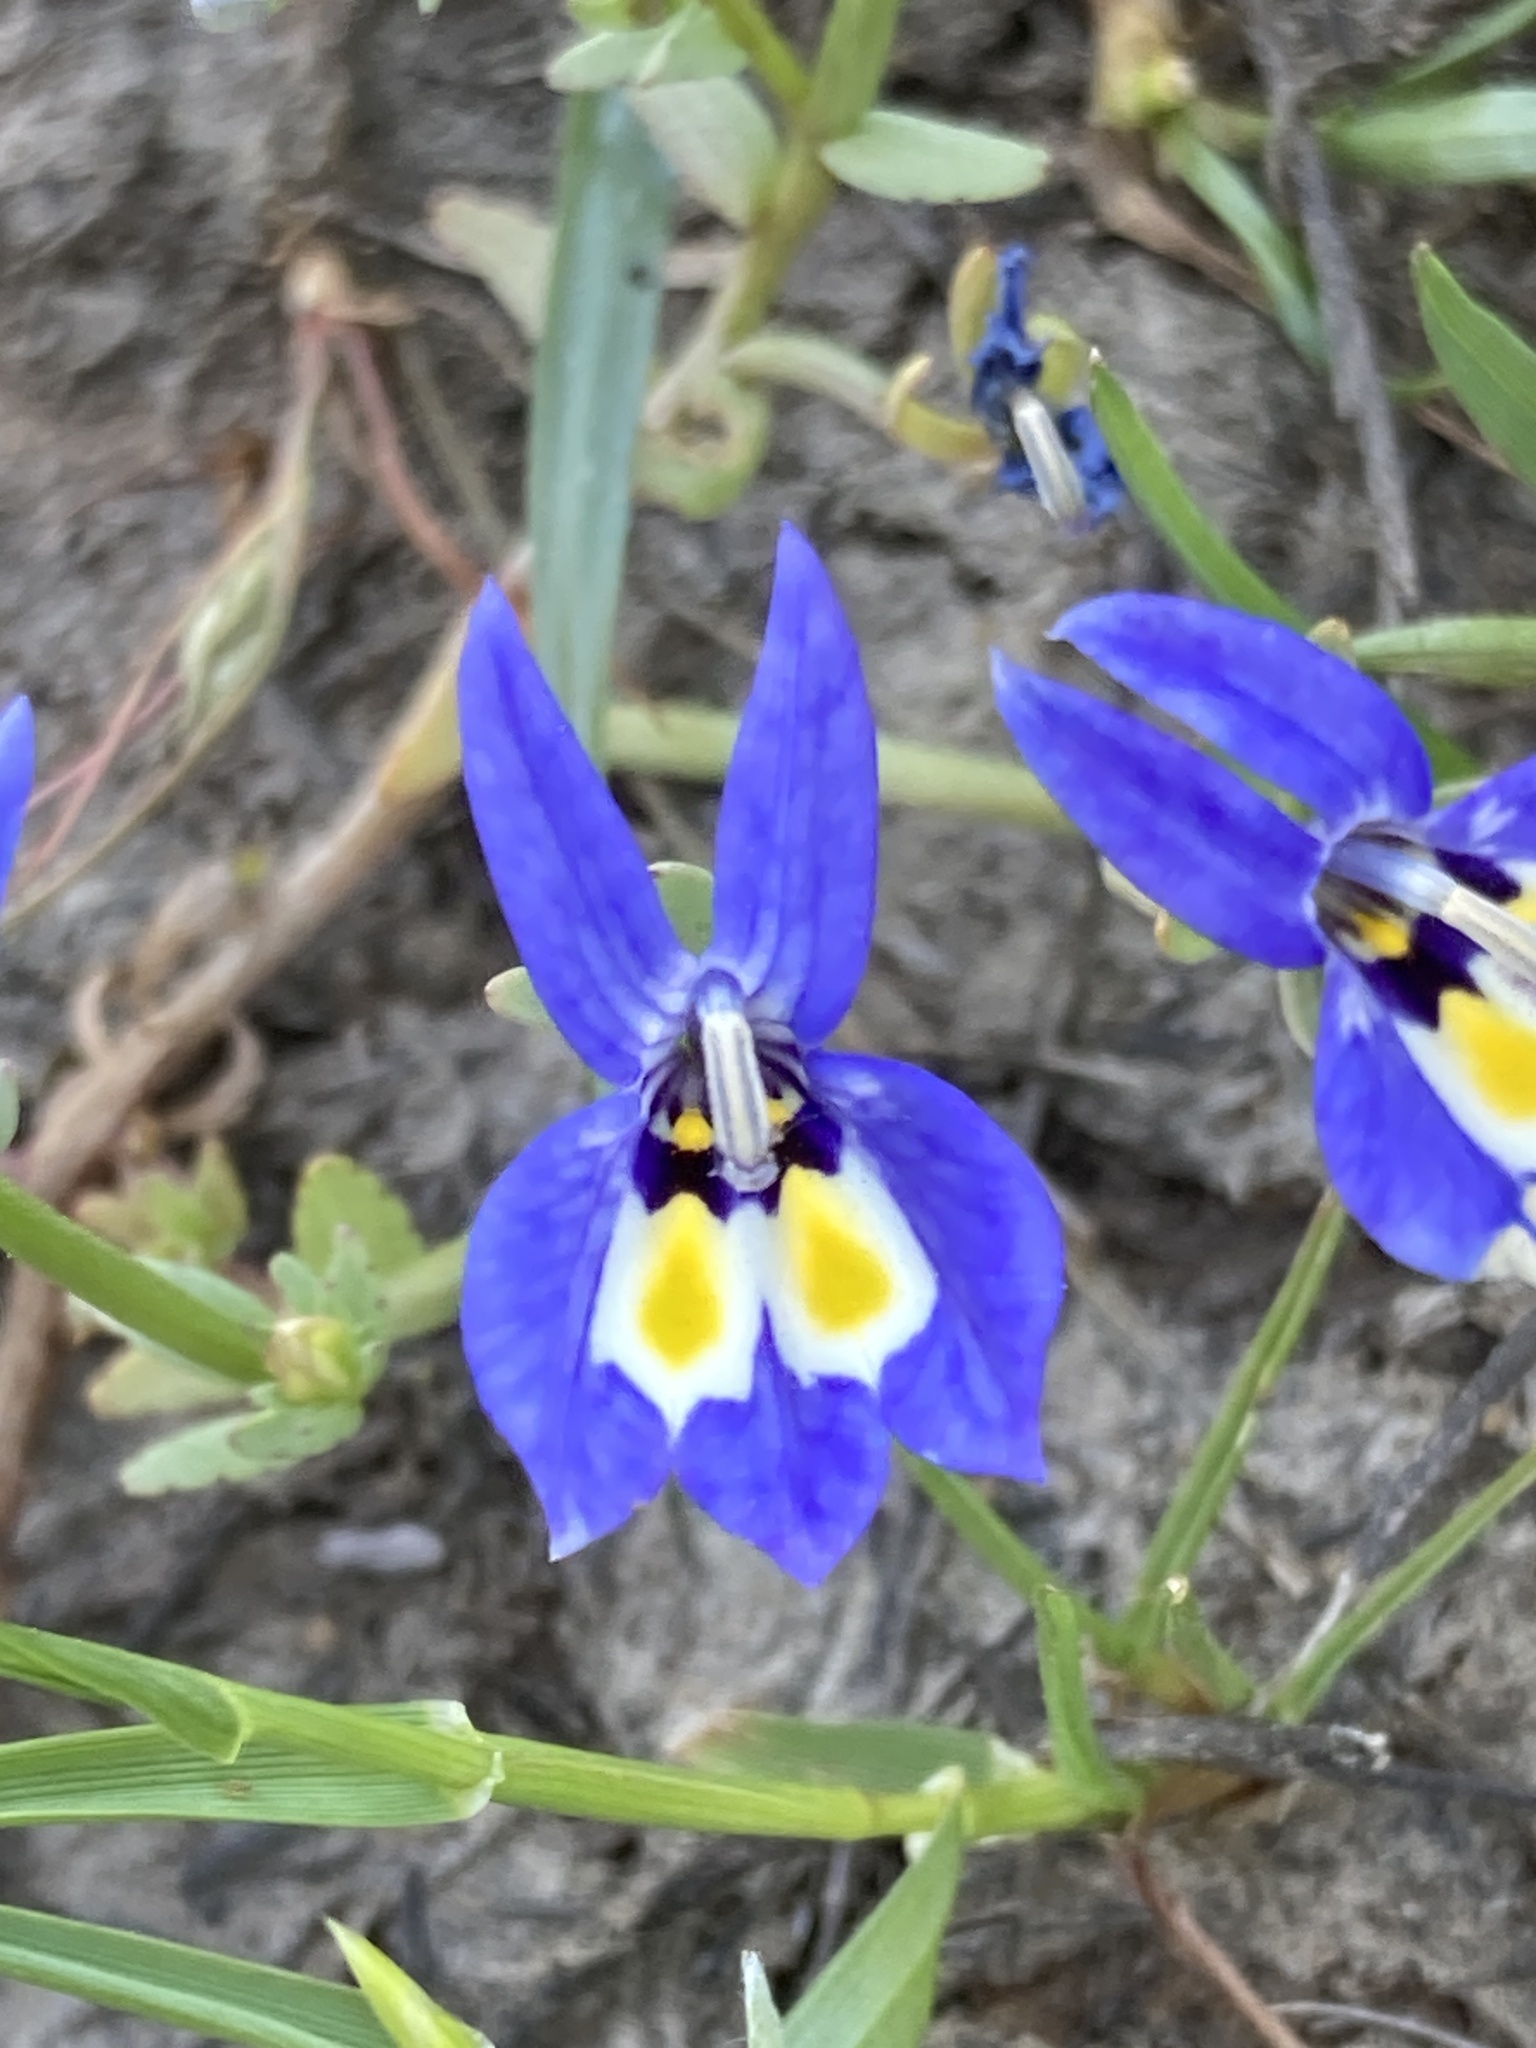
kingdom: Plantae
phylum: Tracheophyta
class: Magnoliopsida
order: Asterales
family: Campanulaceae
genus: Downingia
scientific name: Downingia insignis
